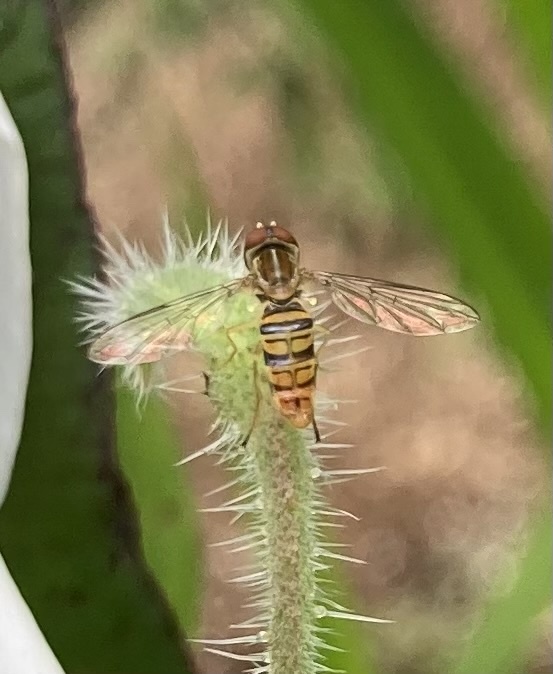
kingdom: Animalia
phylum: Arthropoda
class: Insecta
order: Diptera
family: Syrphidae
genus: Toxomerus
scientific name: Toxomerus politus
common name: Maize calligrapher
